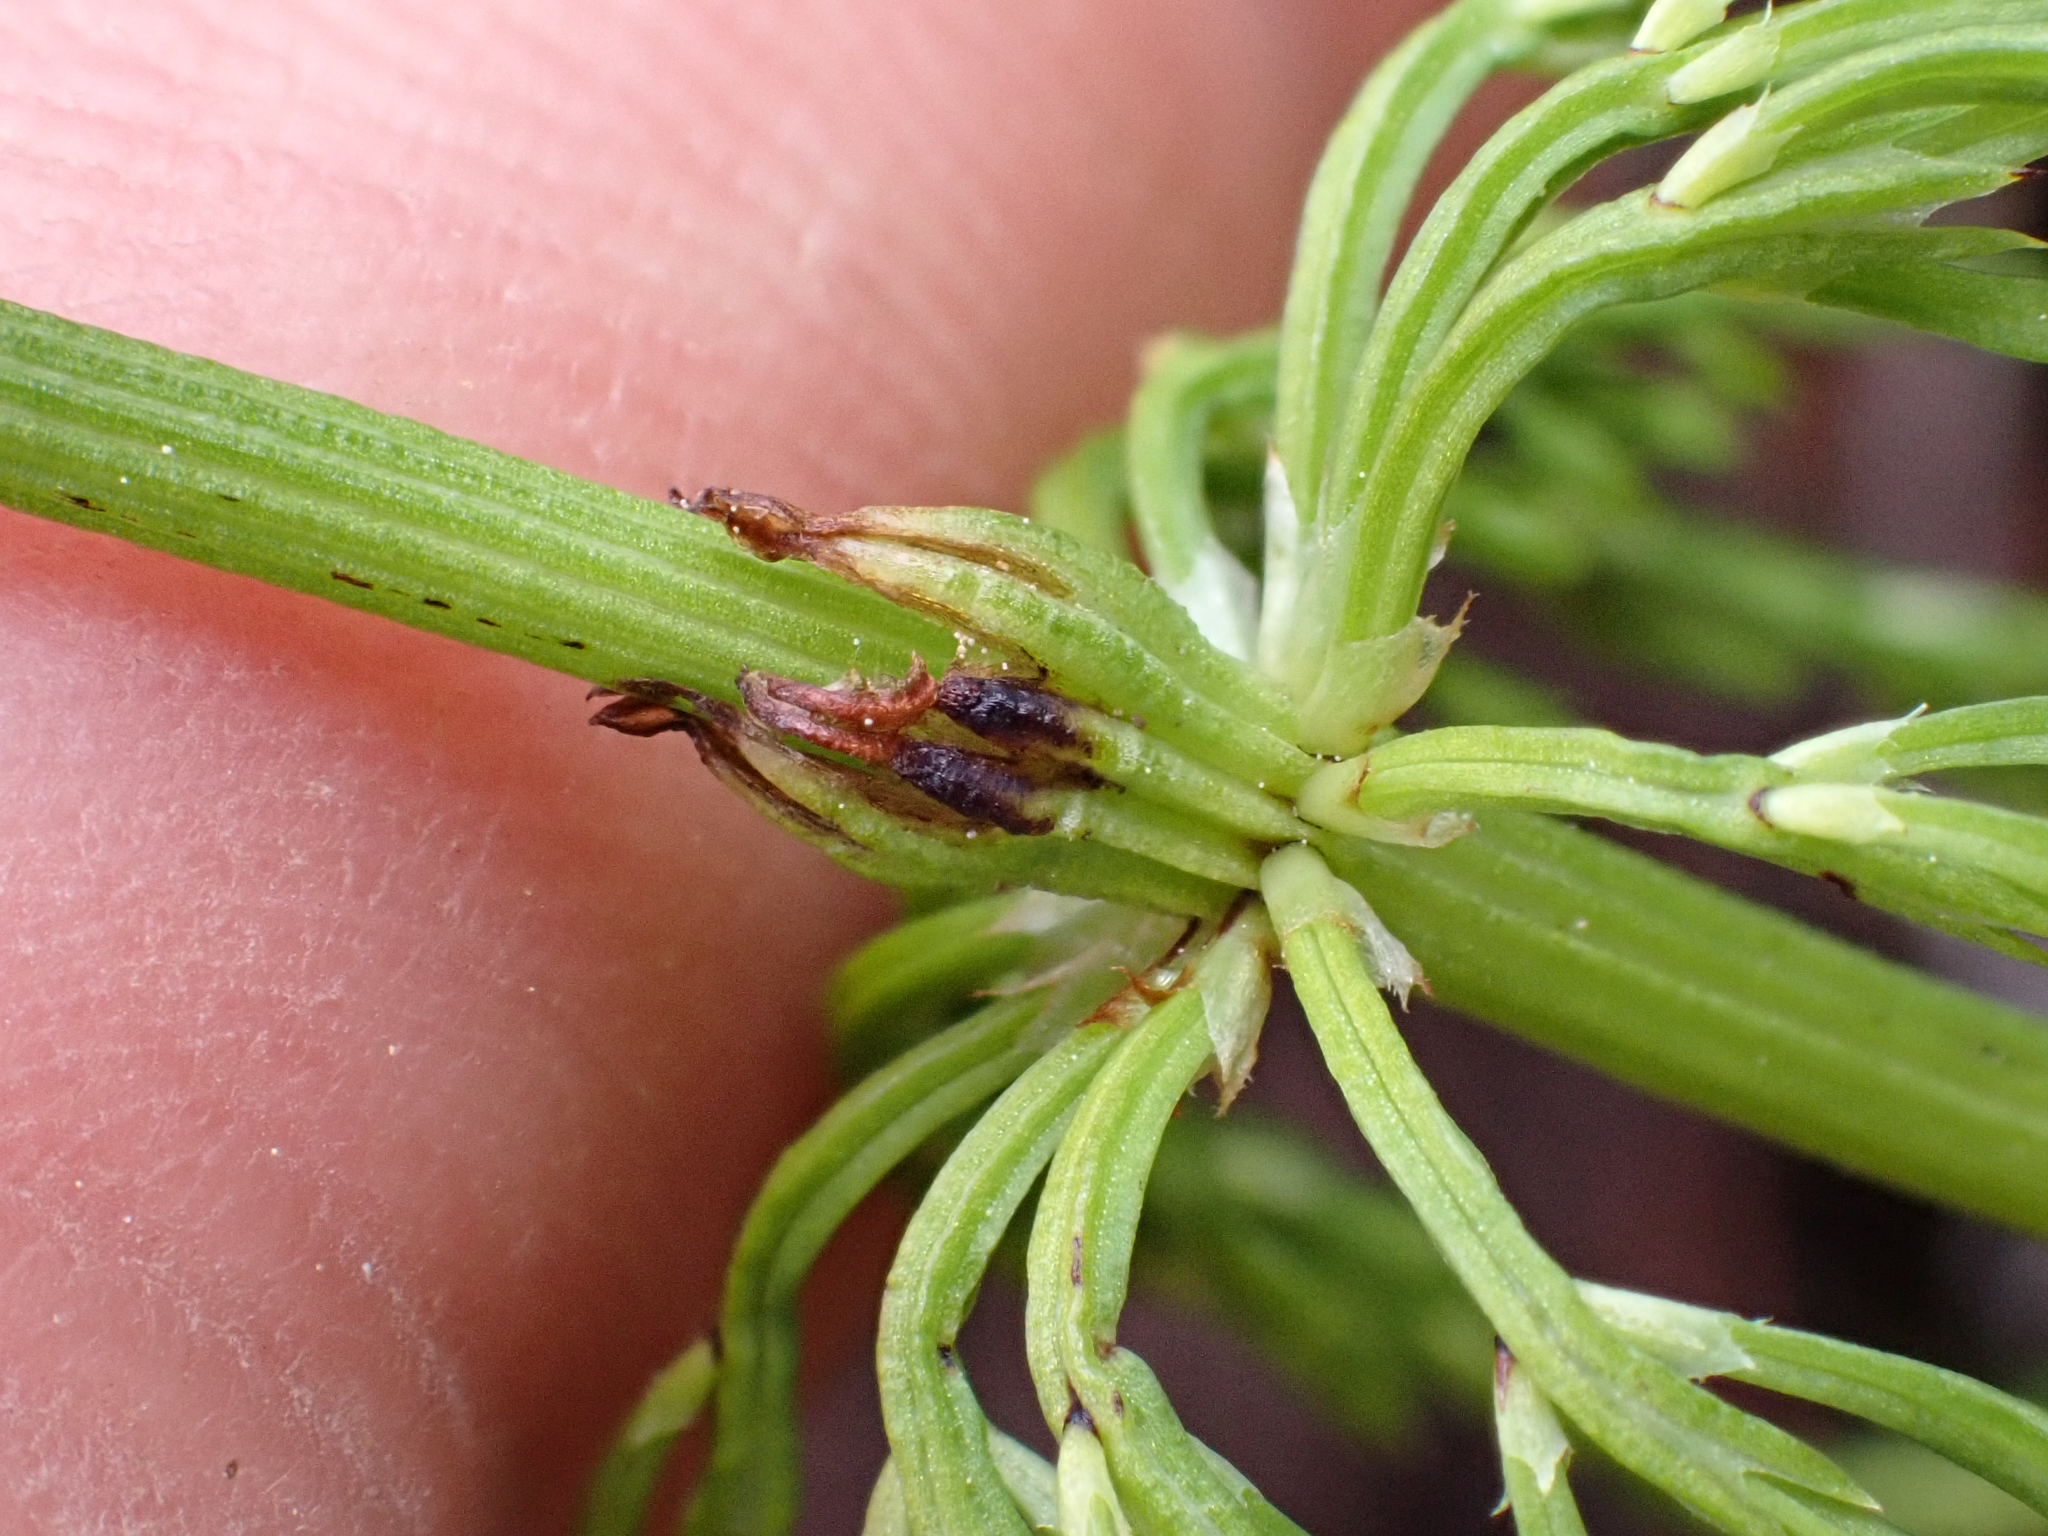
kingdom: Plantae
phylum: Tracheophyta
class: Polypodiopsida
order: Equisetales
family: Equisetaceae
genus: Equisetum
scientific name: Equisetum sylvaticum
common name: Wood horsetail
